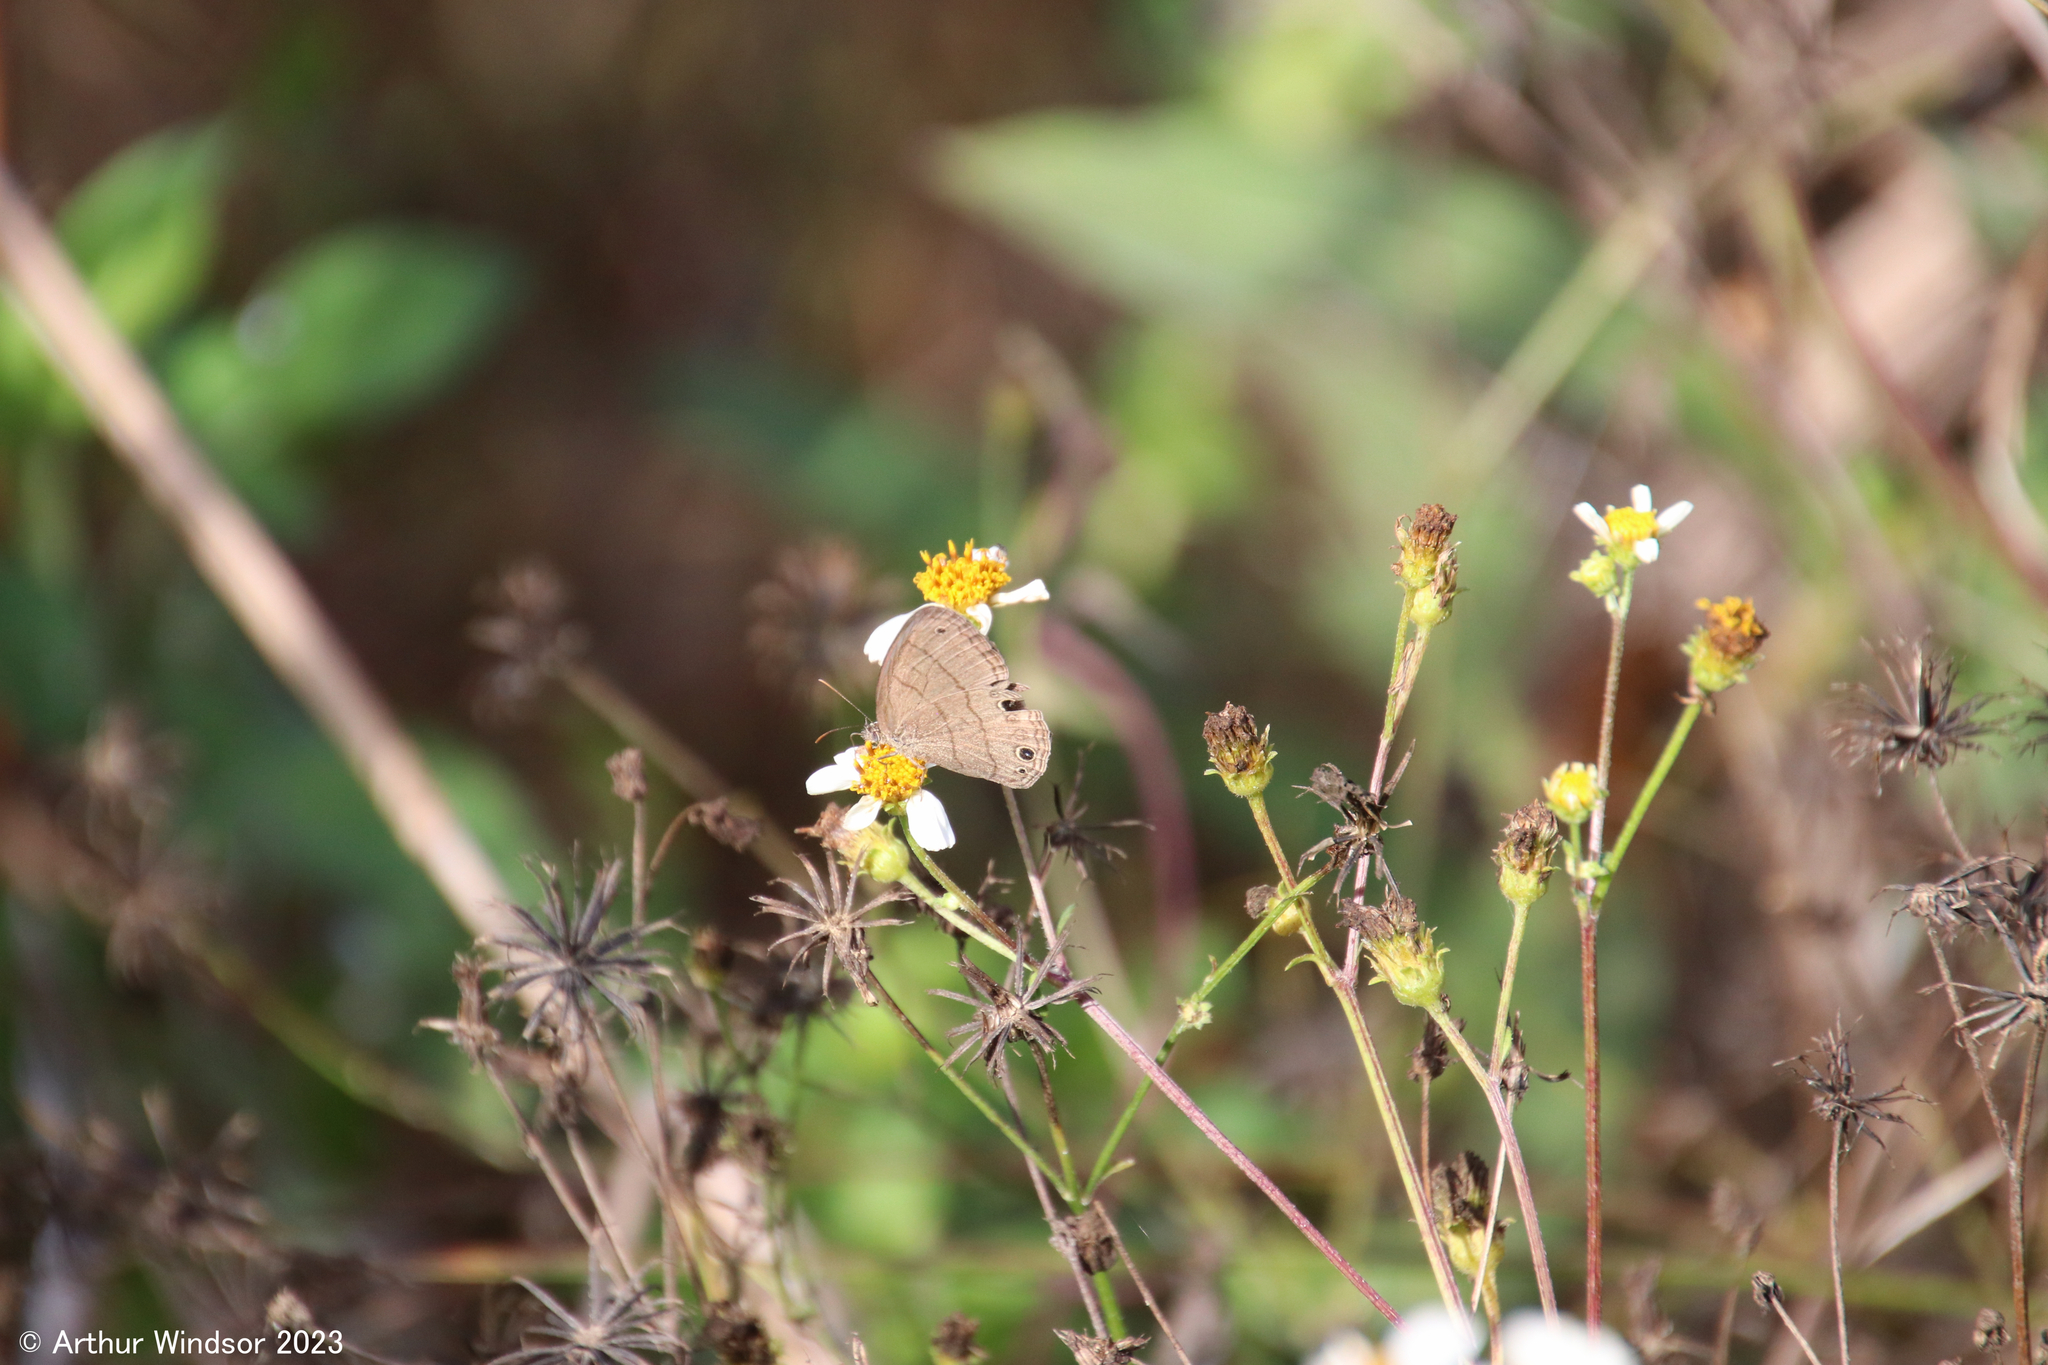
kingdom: Animalia
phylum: Arthropoda
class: Insecta
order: Lepidoptera
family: Nymphalidae
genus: Hermeuptychia
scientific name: Hermeuptychia hermes
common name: Hermes satyr
